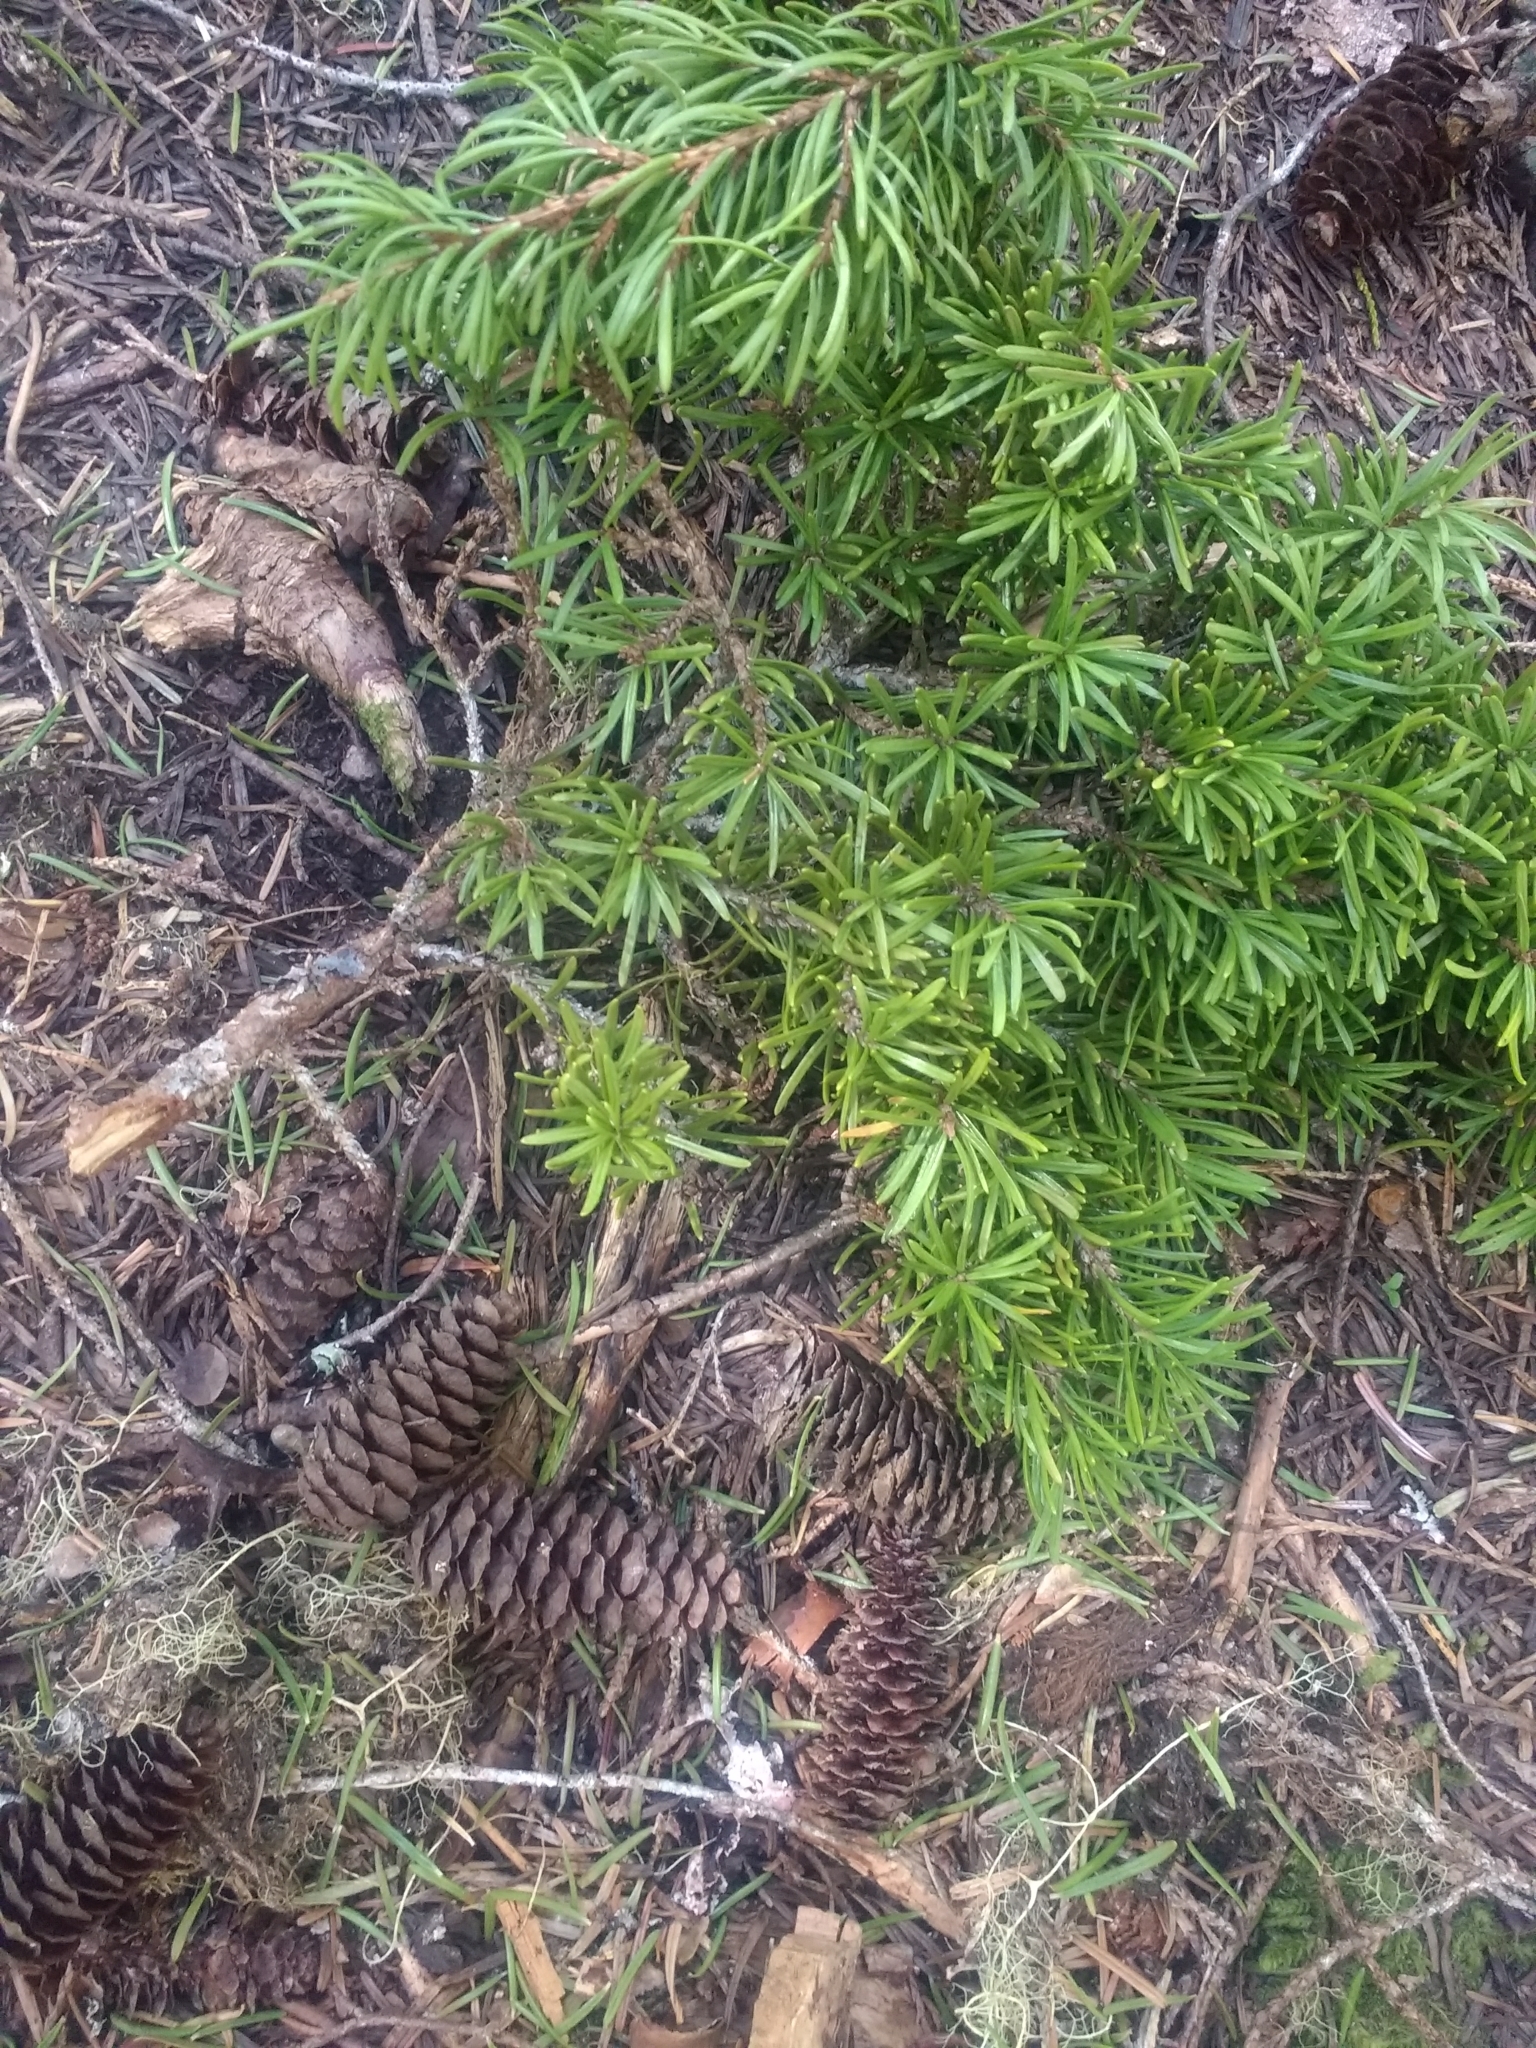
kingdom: Plantae
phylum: Tracheophyta
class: Pinopsida
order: Pinales
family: Pinaceae
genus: Tsuga
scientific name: Tsuga mertensiana
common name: Mountain hemlock
